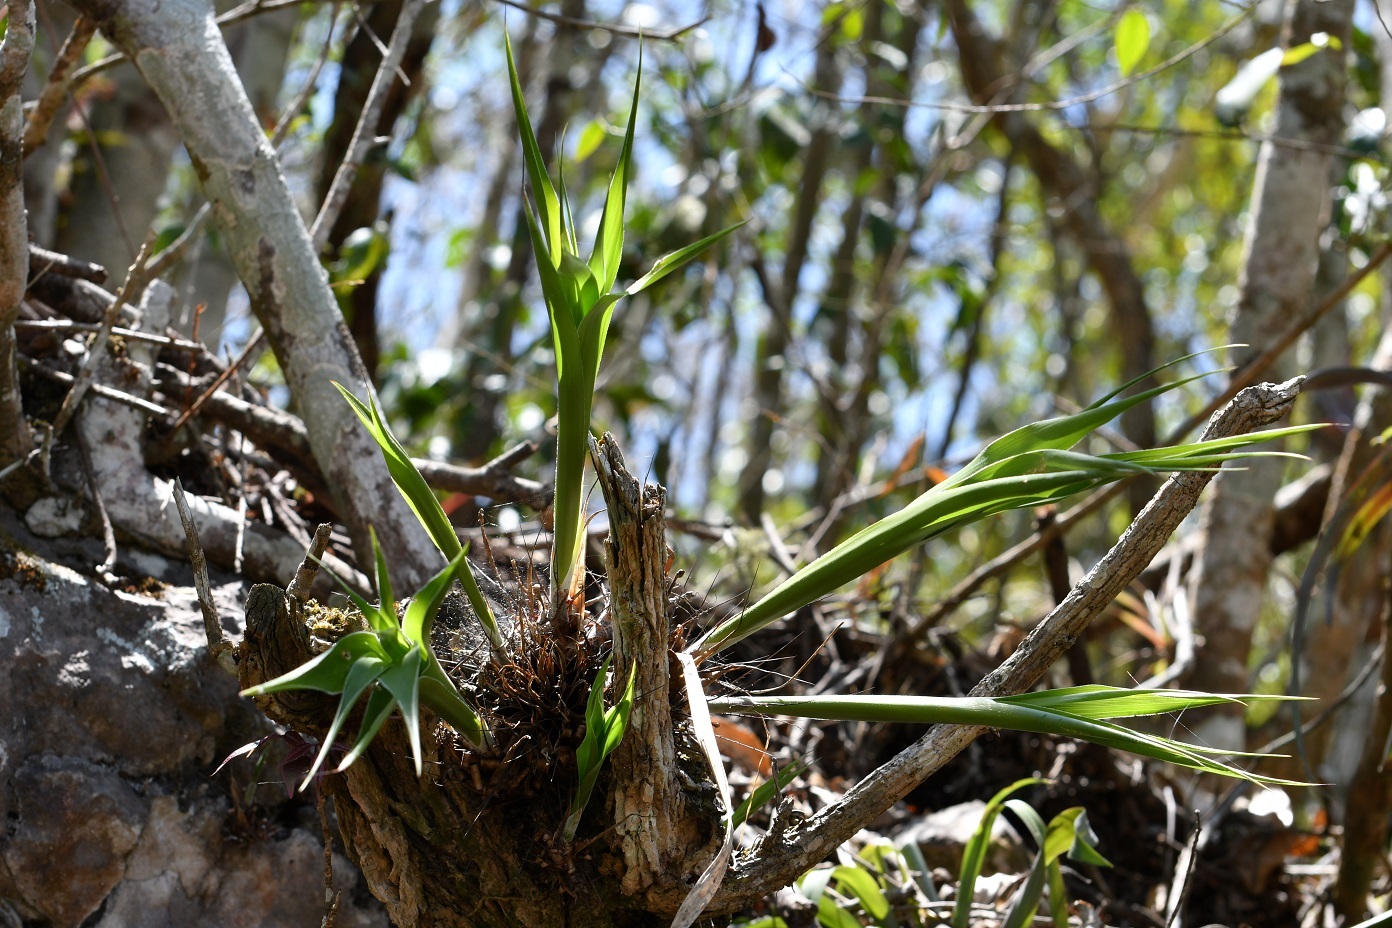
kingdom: Plantae
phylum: Tracheophyta
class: Liliopsida
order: Poales
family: Bromeliaceae
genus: Pitcairnia
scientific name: Pitcairnia heterophylla
